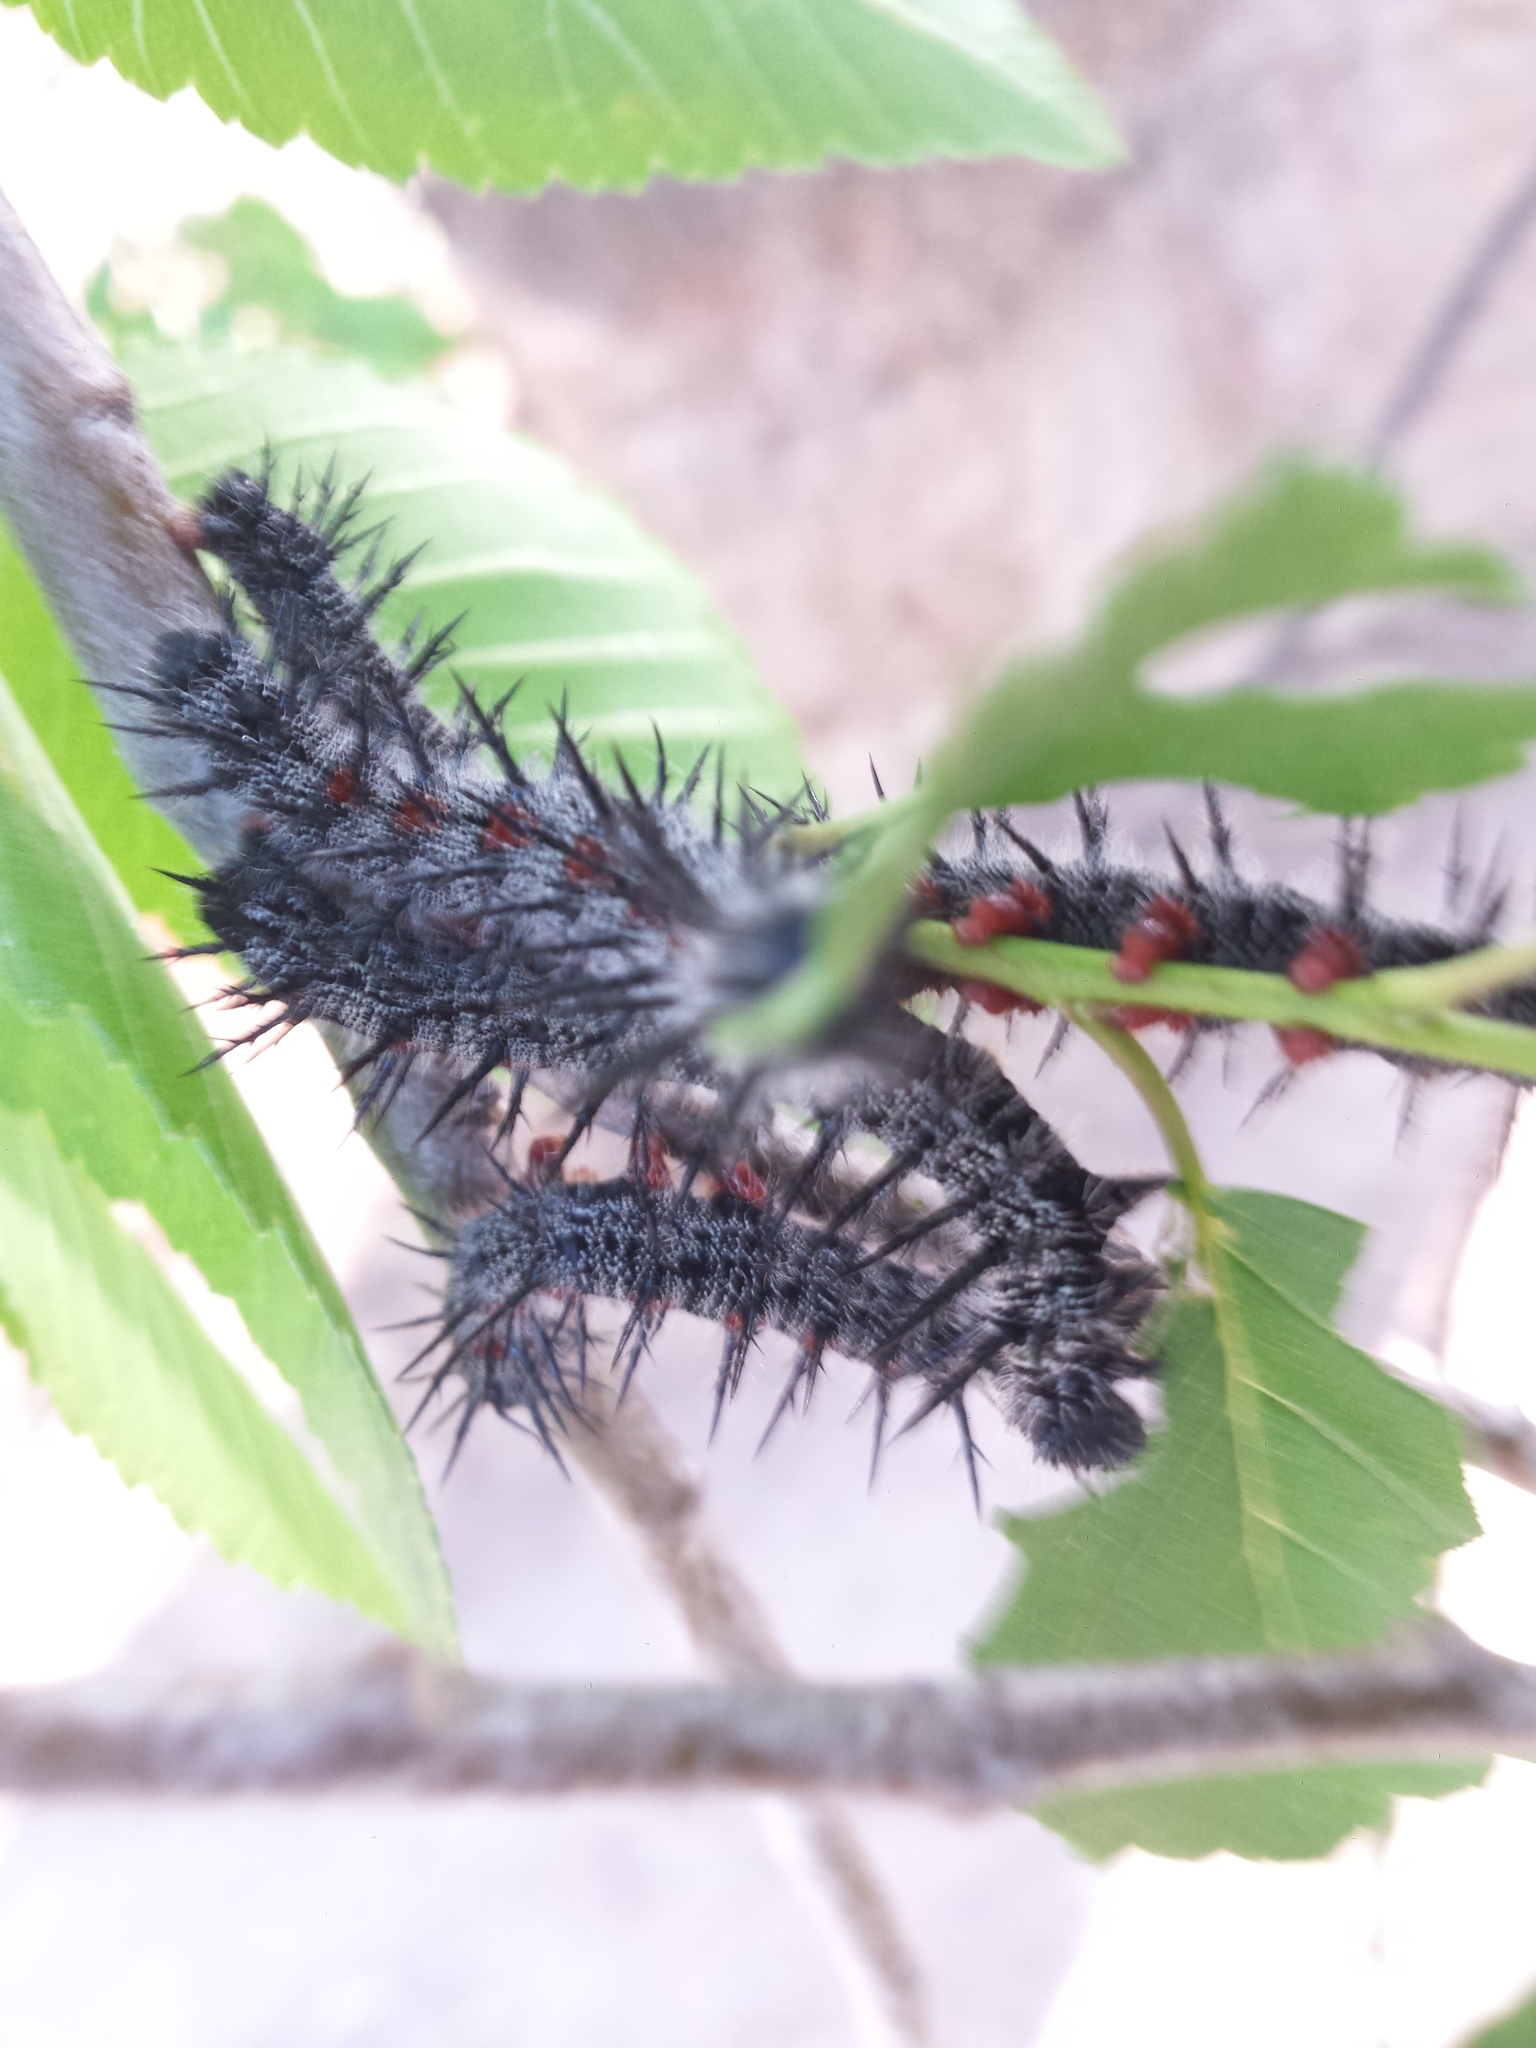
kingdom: Animalia
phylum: Arthropoda
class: Insecta
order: Lepidoptera
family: Nymphalidae
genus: Nymphalis
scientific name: Nymphalis antiopa
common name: Camberwell beauty
